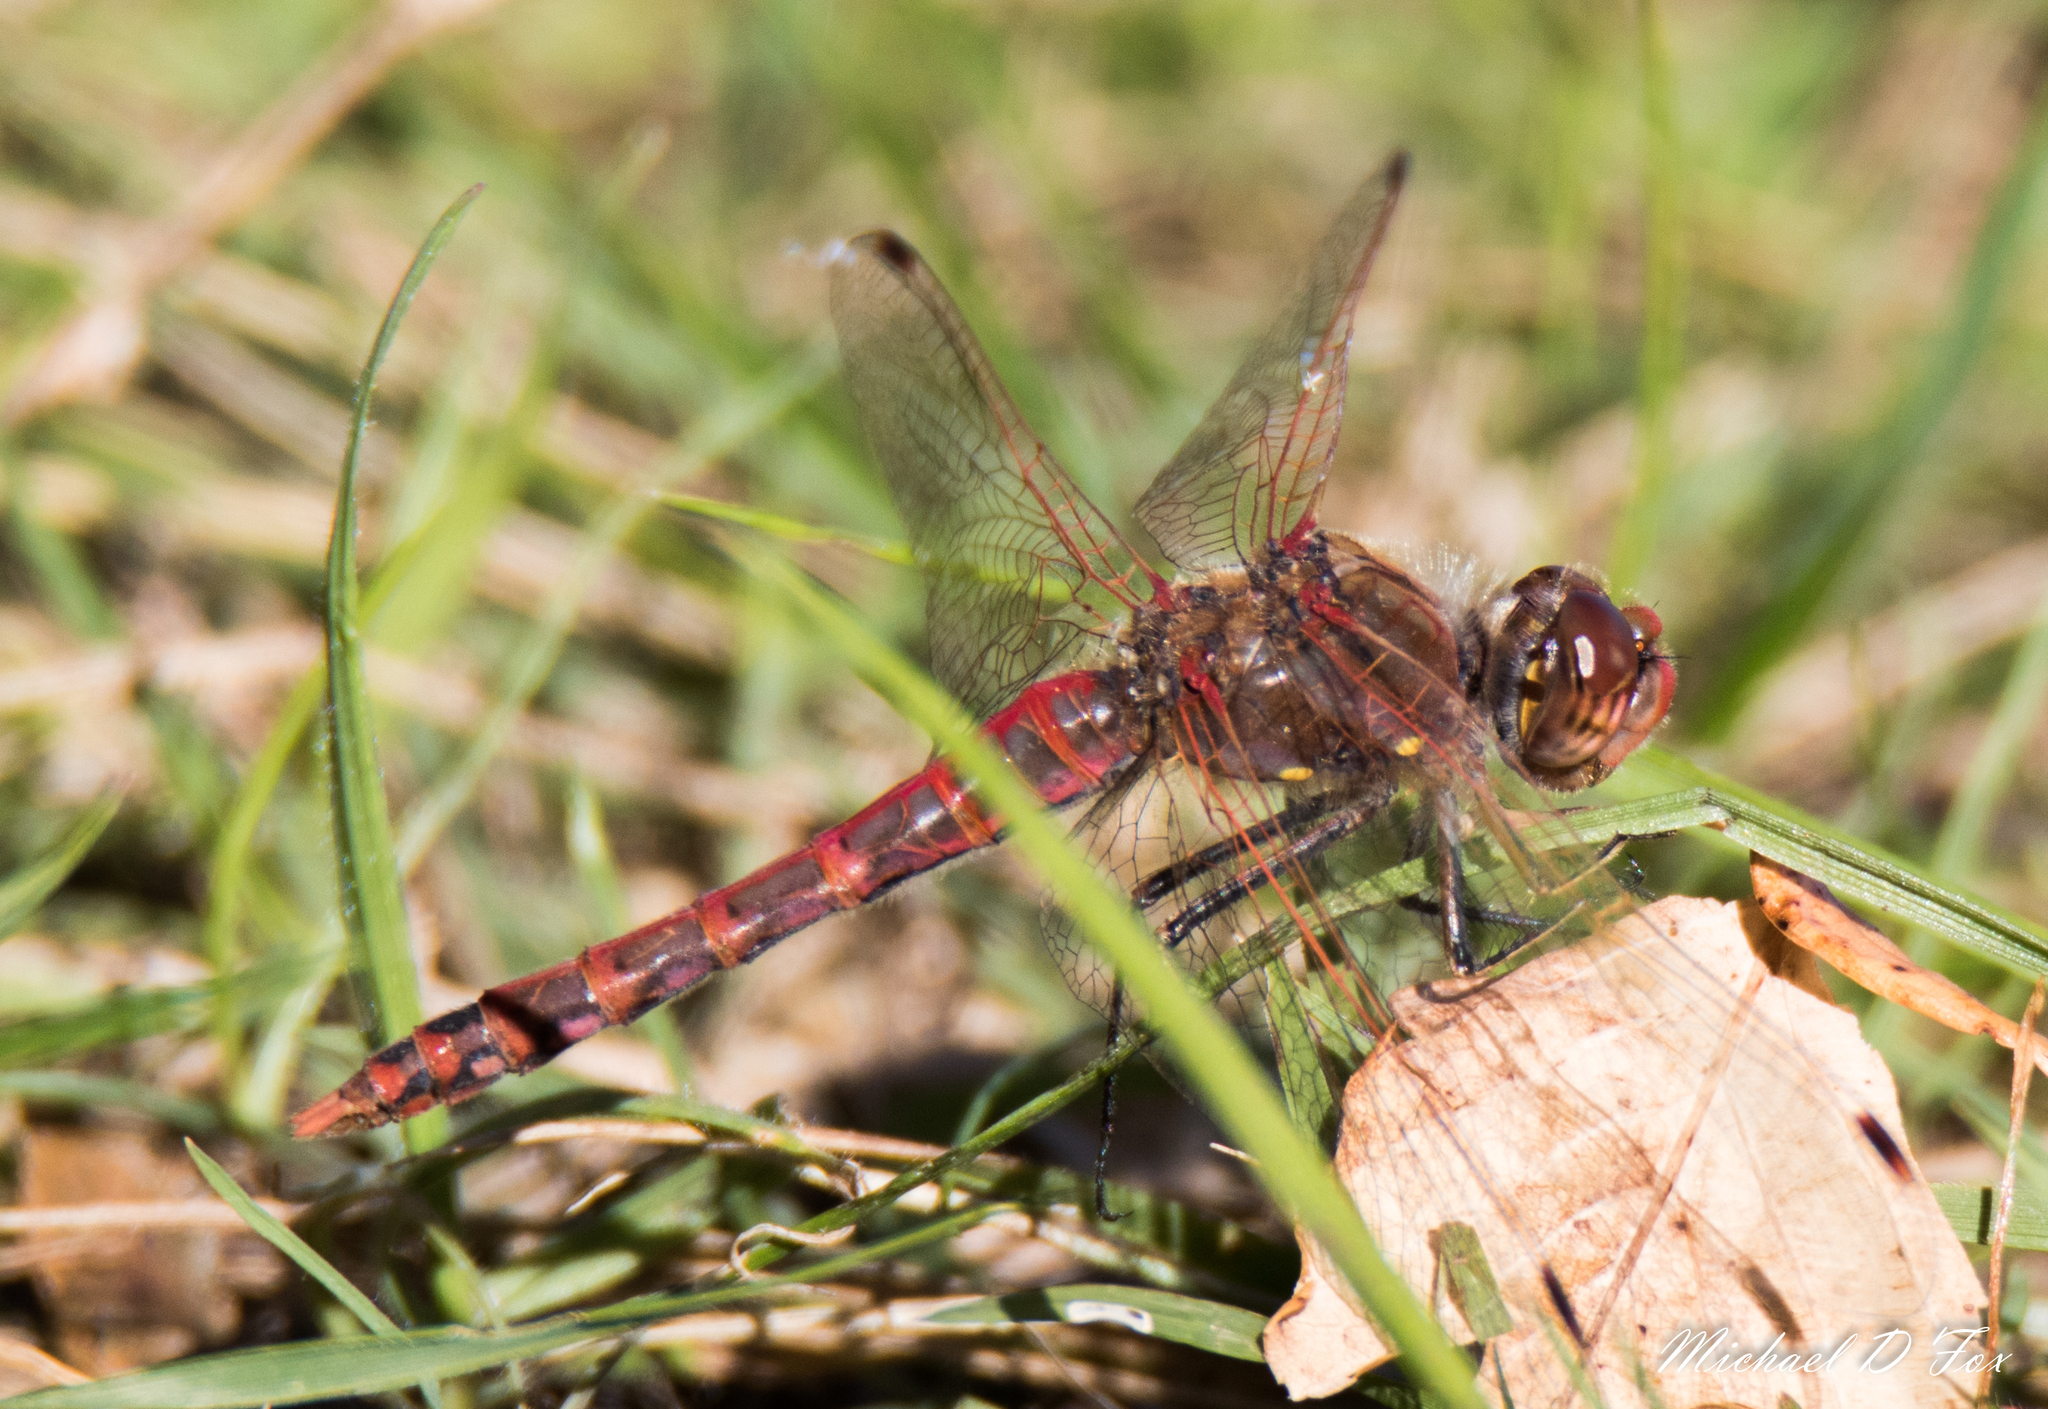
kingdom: Animalia
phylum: Arthropoda
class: Insecta
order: Odonata
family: Libellulidae
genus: Sympetrum
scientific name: Sympetrum corruptum
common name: Variegated meadowhawk
